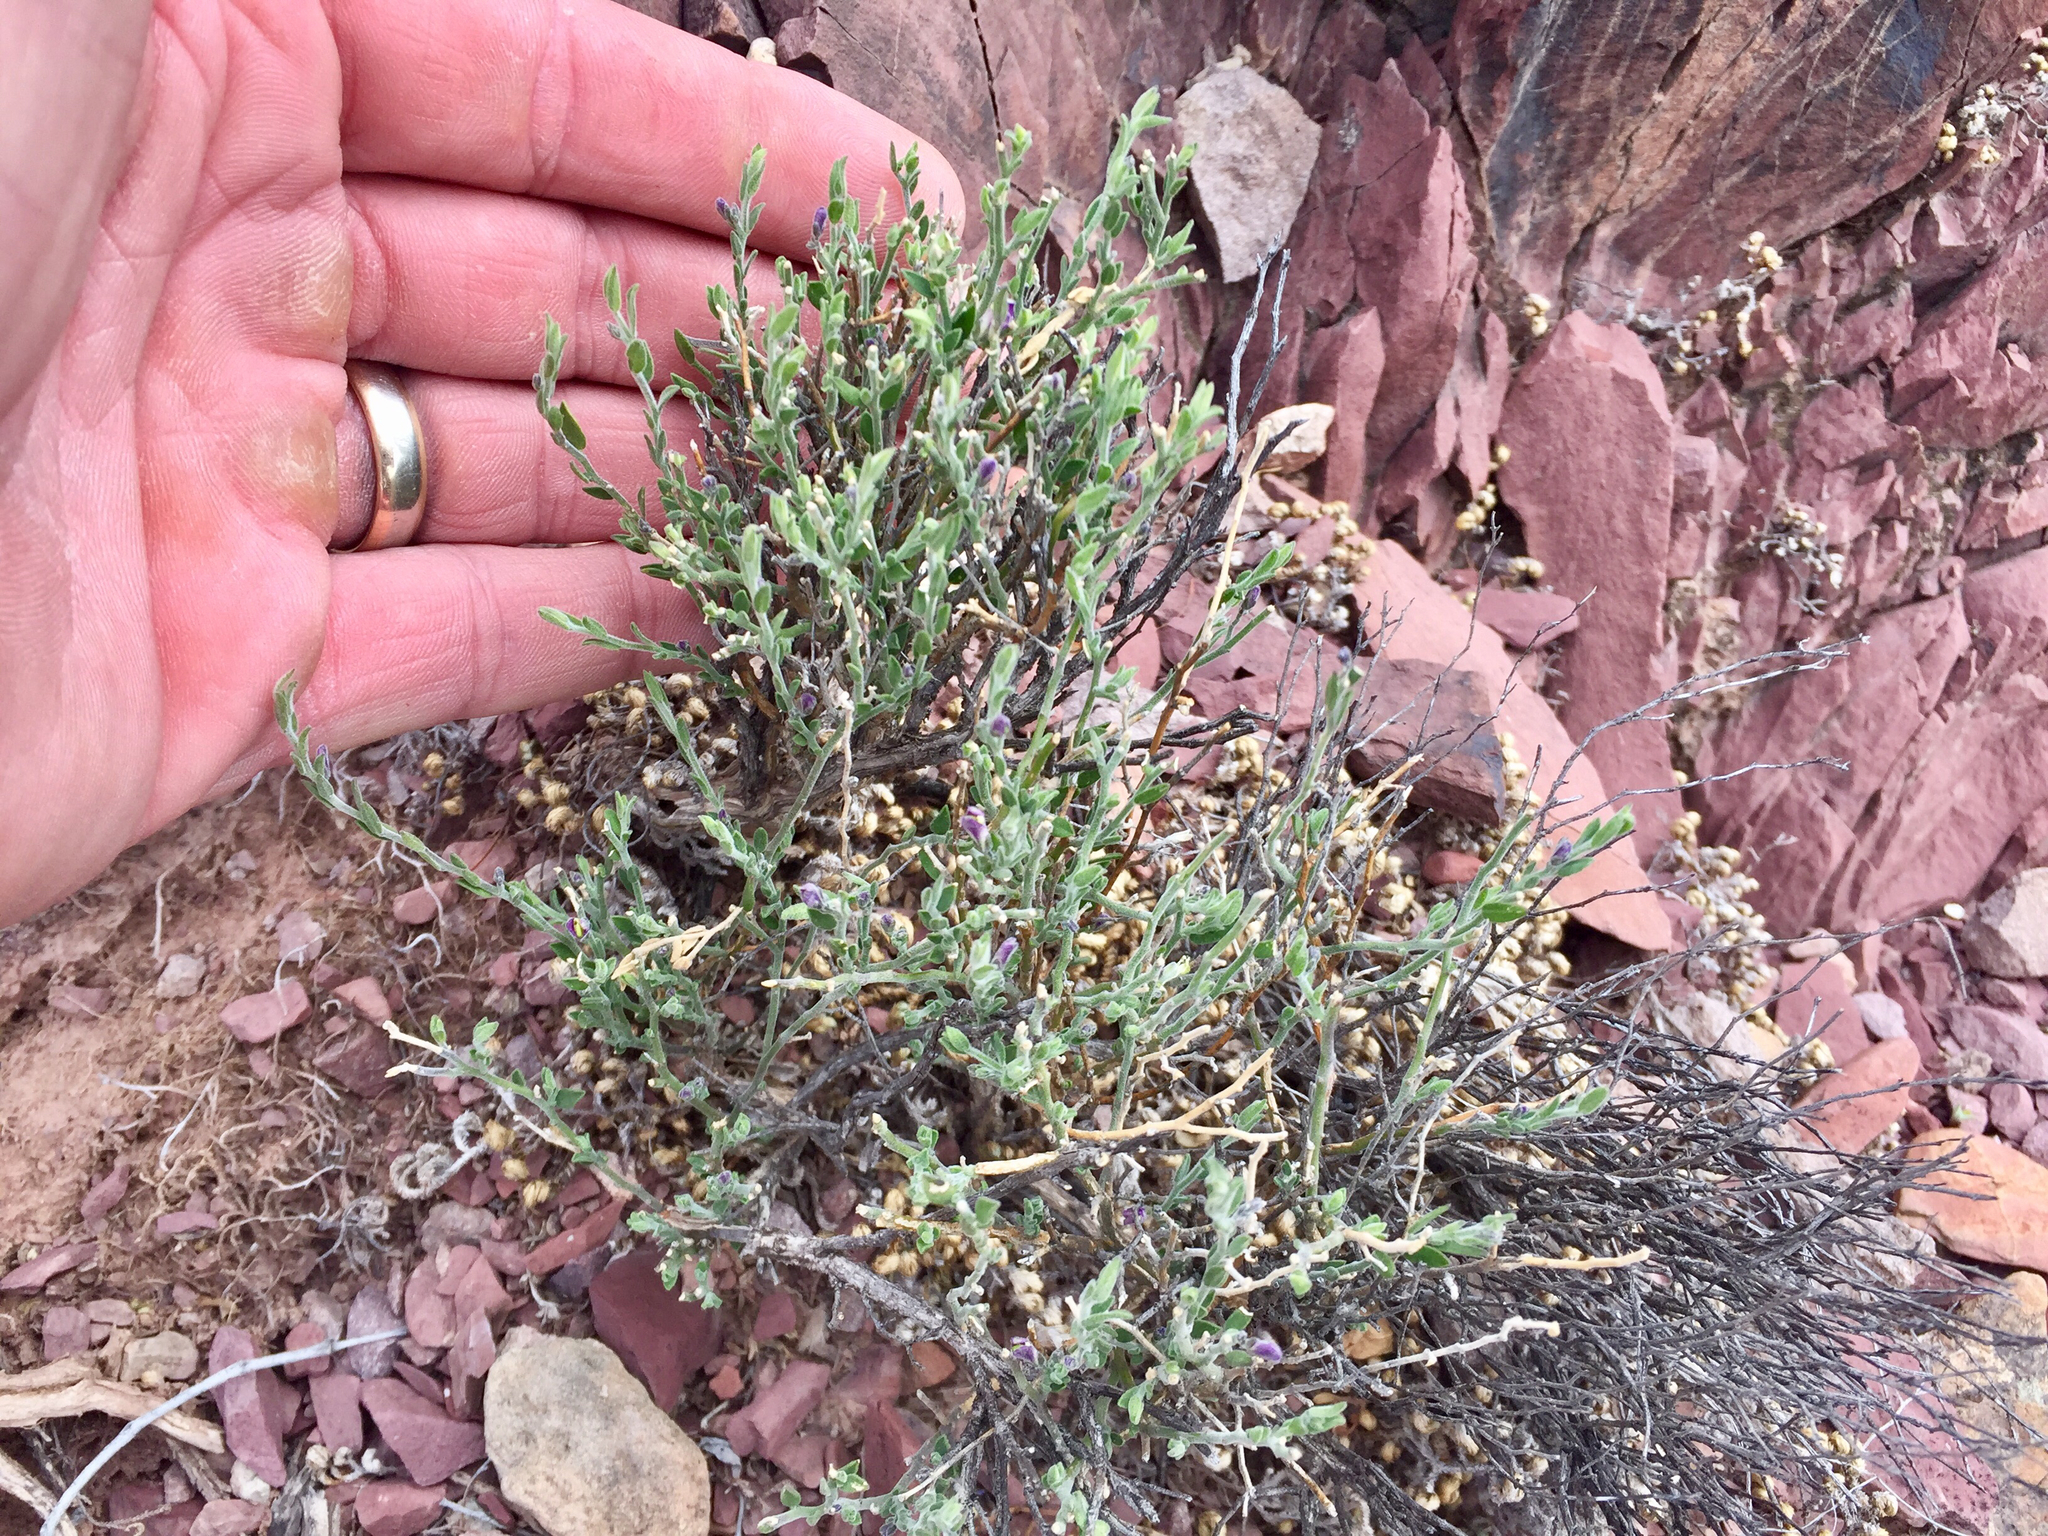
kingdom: Plantae
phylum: Tracheophyta
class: Magnoliopsida
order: Fabales
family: Polygalaceae
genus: Hebecarpa
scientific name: Hebecarpa macradenia
